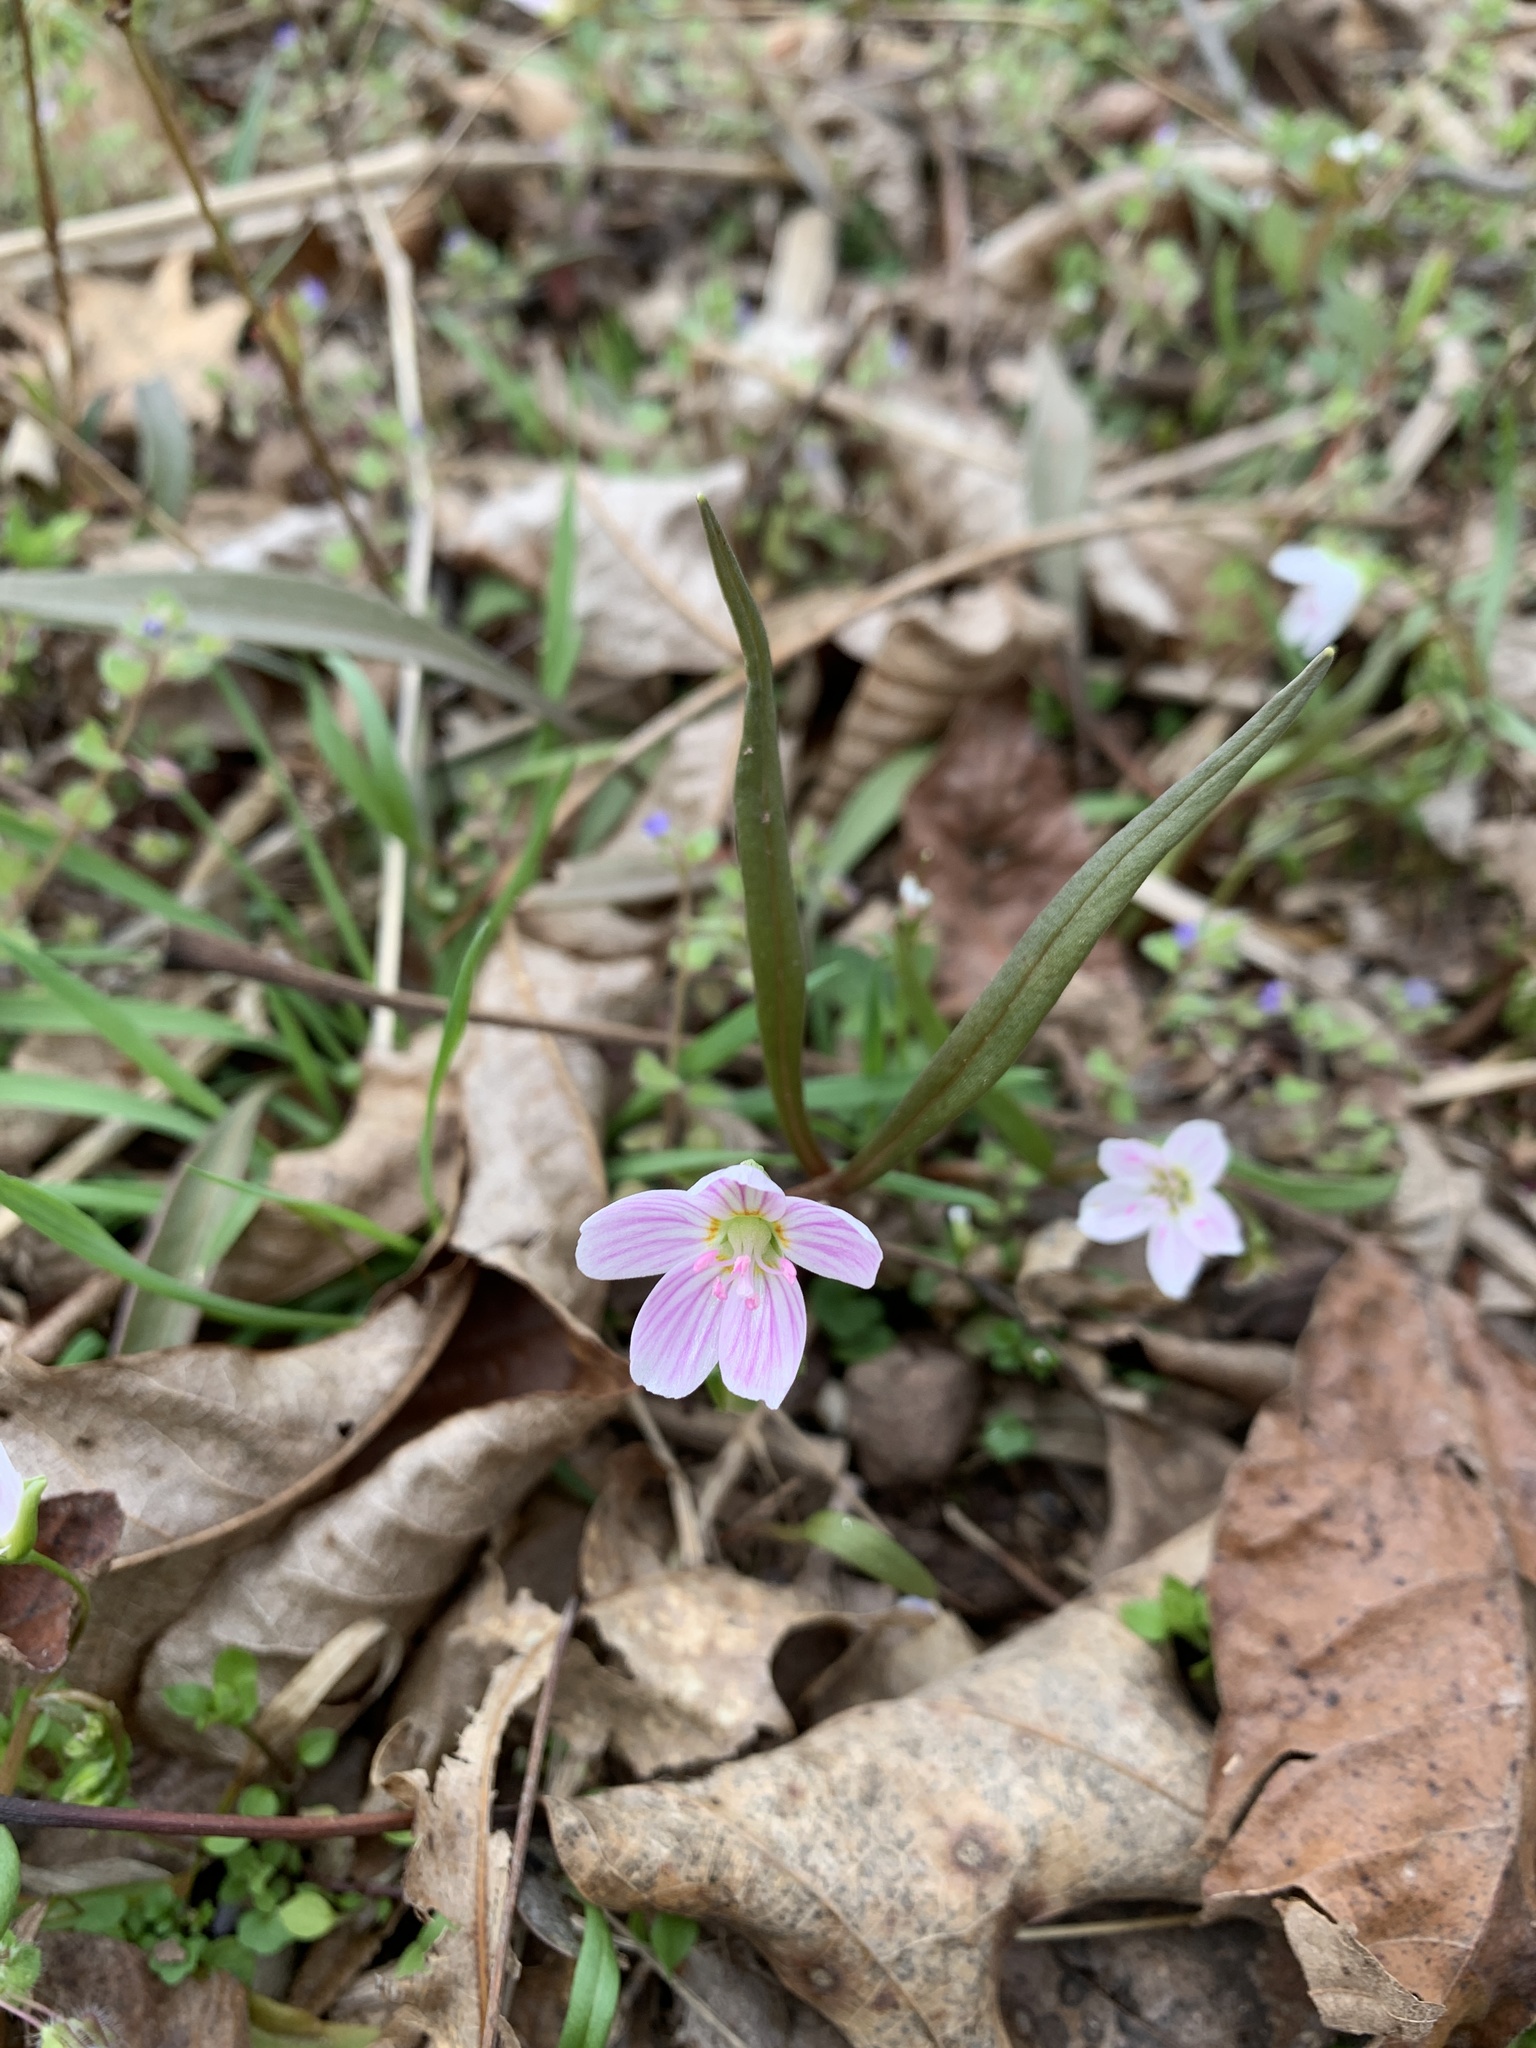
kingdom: Plantae
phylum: Tracheophyta
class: Magnoliopsida
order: Caryophyllales
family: Montiaceae
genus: Claytonia
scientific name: Claytonia virginica
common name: Virginia springbeauty
